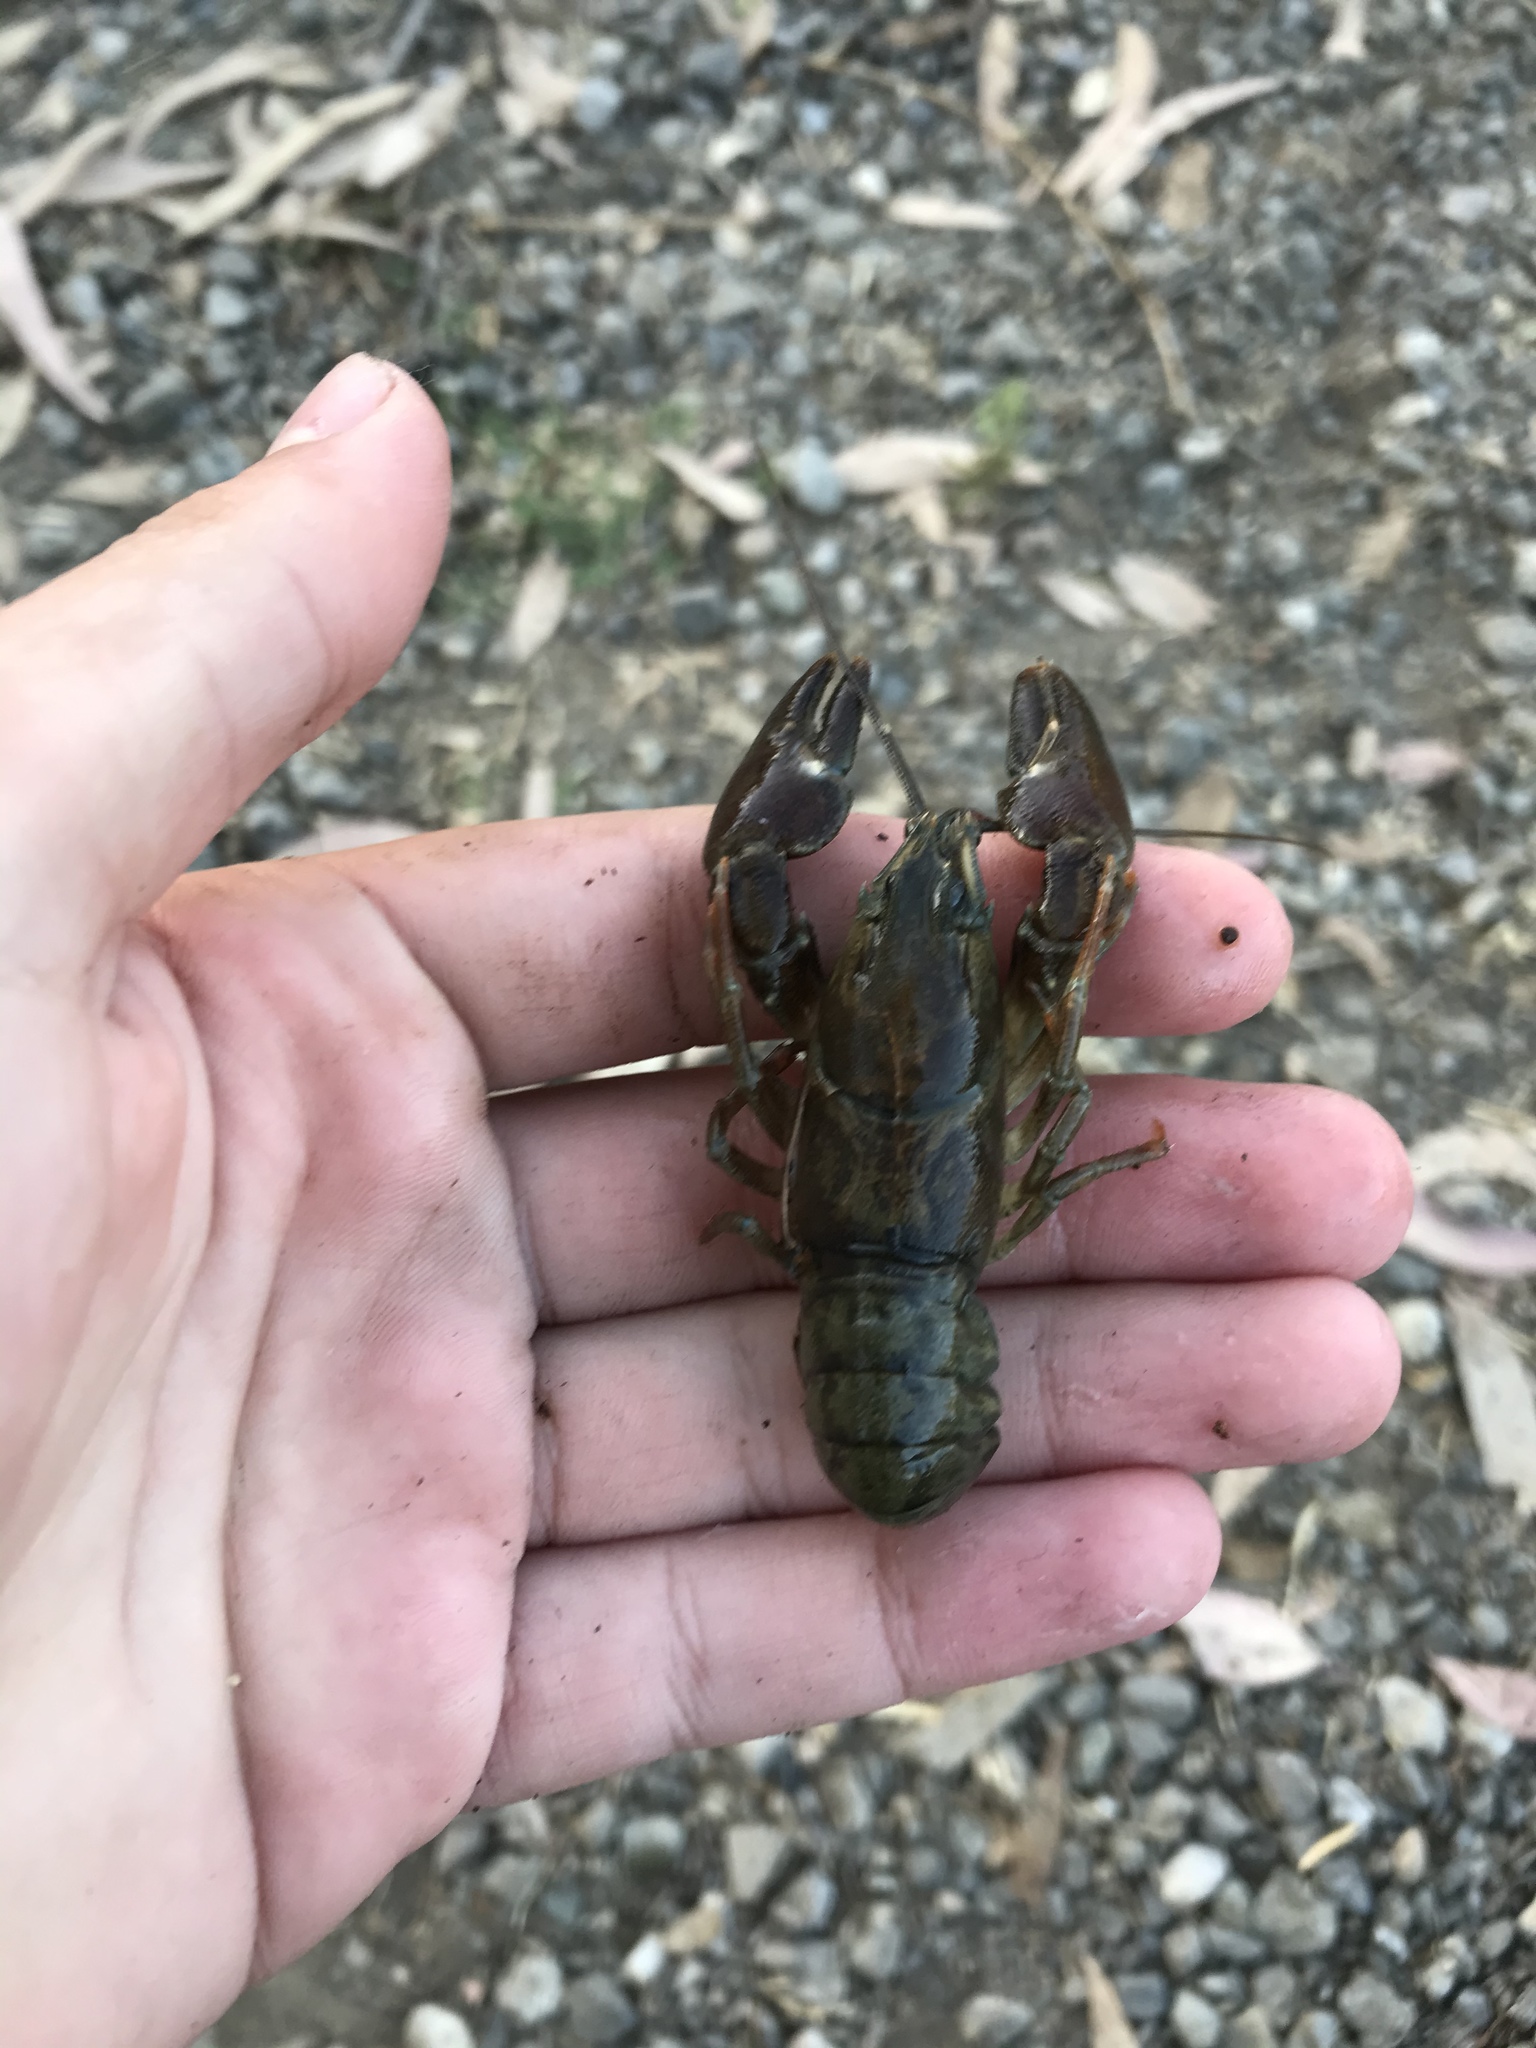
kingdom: Animalia
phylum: Arthropoda
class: Malacostraca
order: Decapoda
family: Astacidae
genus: Pacifastacus
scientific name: Pacifastacus leniusculus
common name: Signal crayfish
